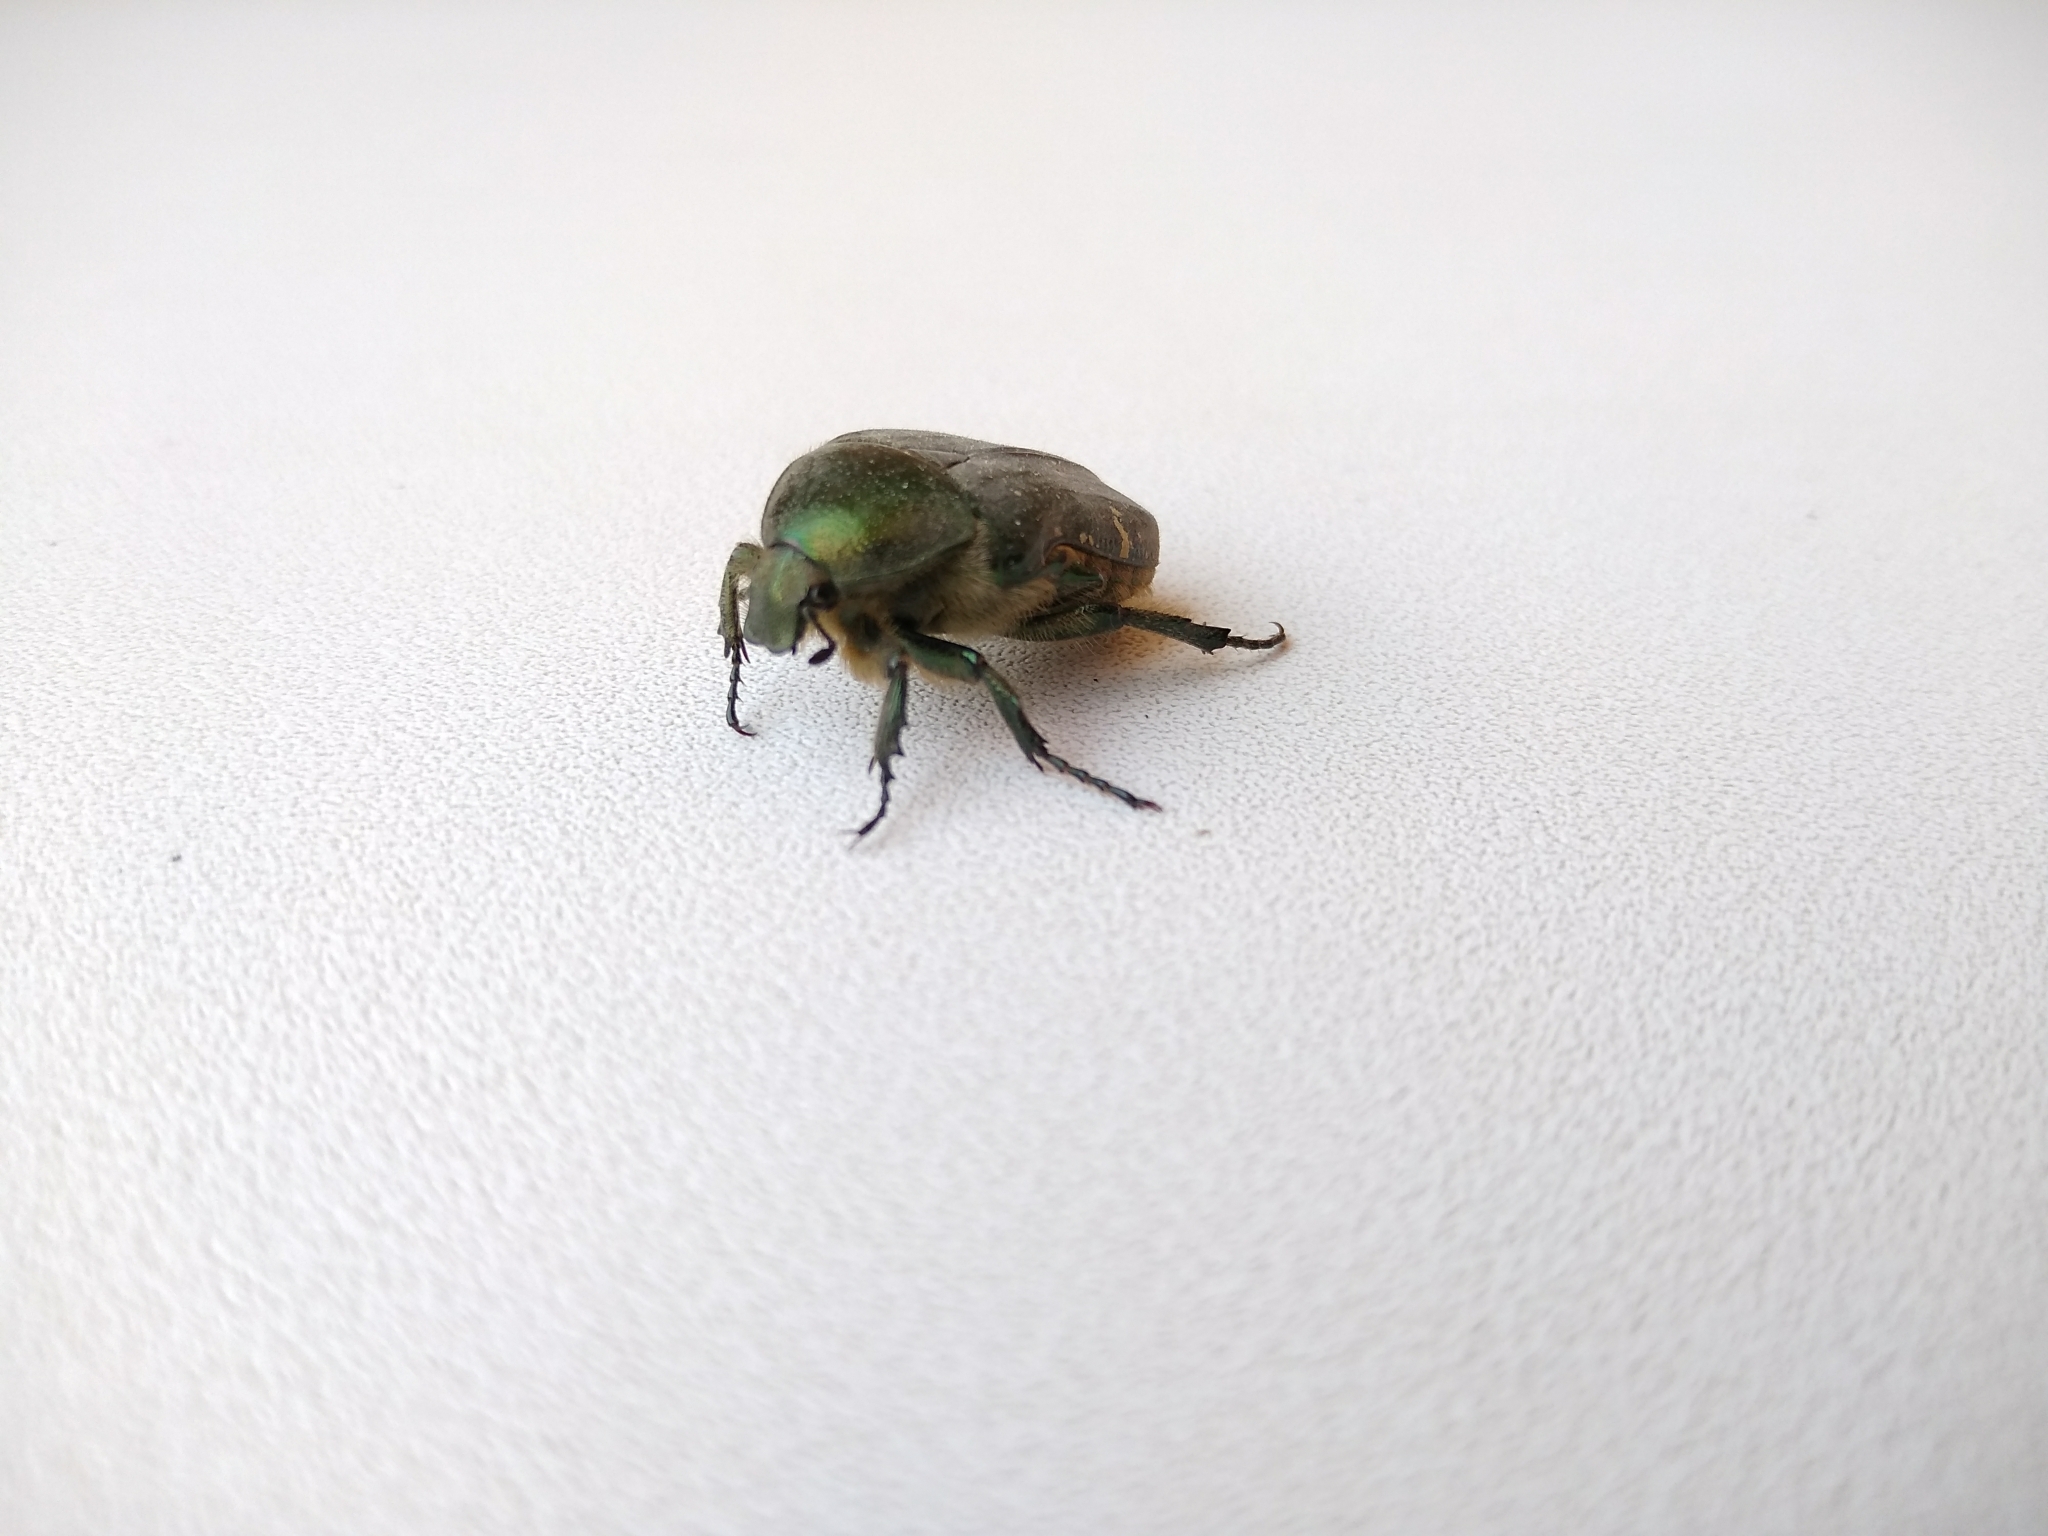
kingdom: Animalia
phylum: Arthropoda
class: Insecta
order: Coleoptera
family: Scarabaeidae
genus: Cetonia
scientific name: Cetonia aurata
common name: Rose chafer
